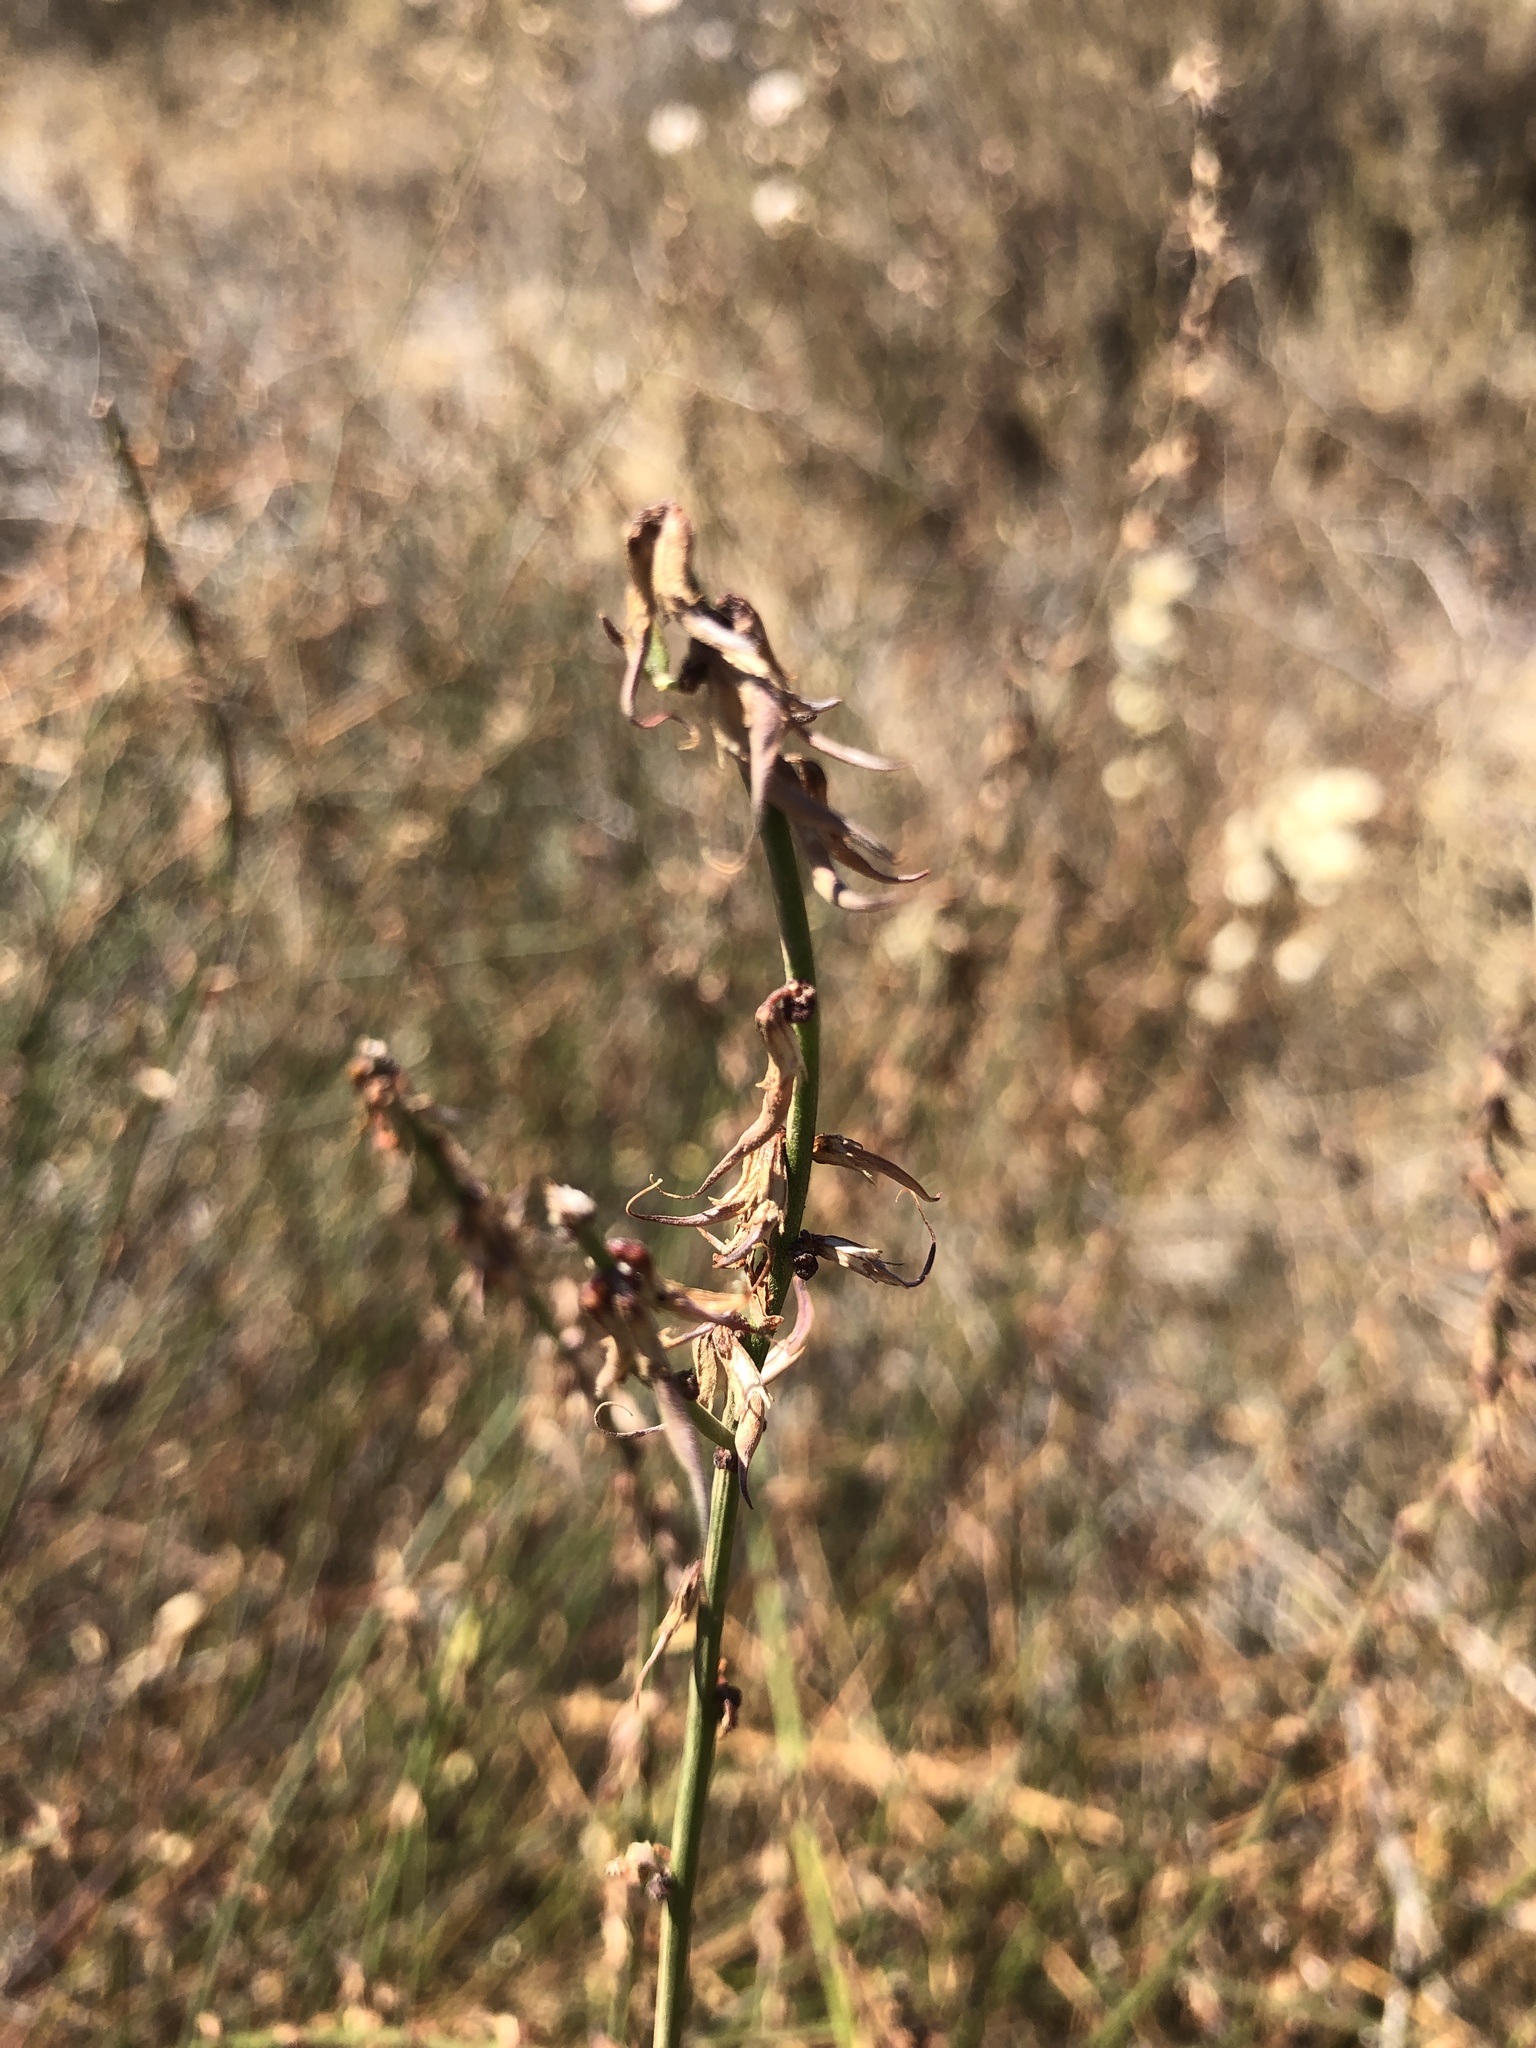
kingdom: Plantae
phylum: Tracheophyta
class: Magnoliopsida
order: Fabales
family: Fabaceae
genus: Acmispon
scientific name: Acmispon glaber
